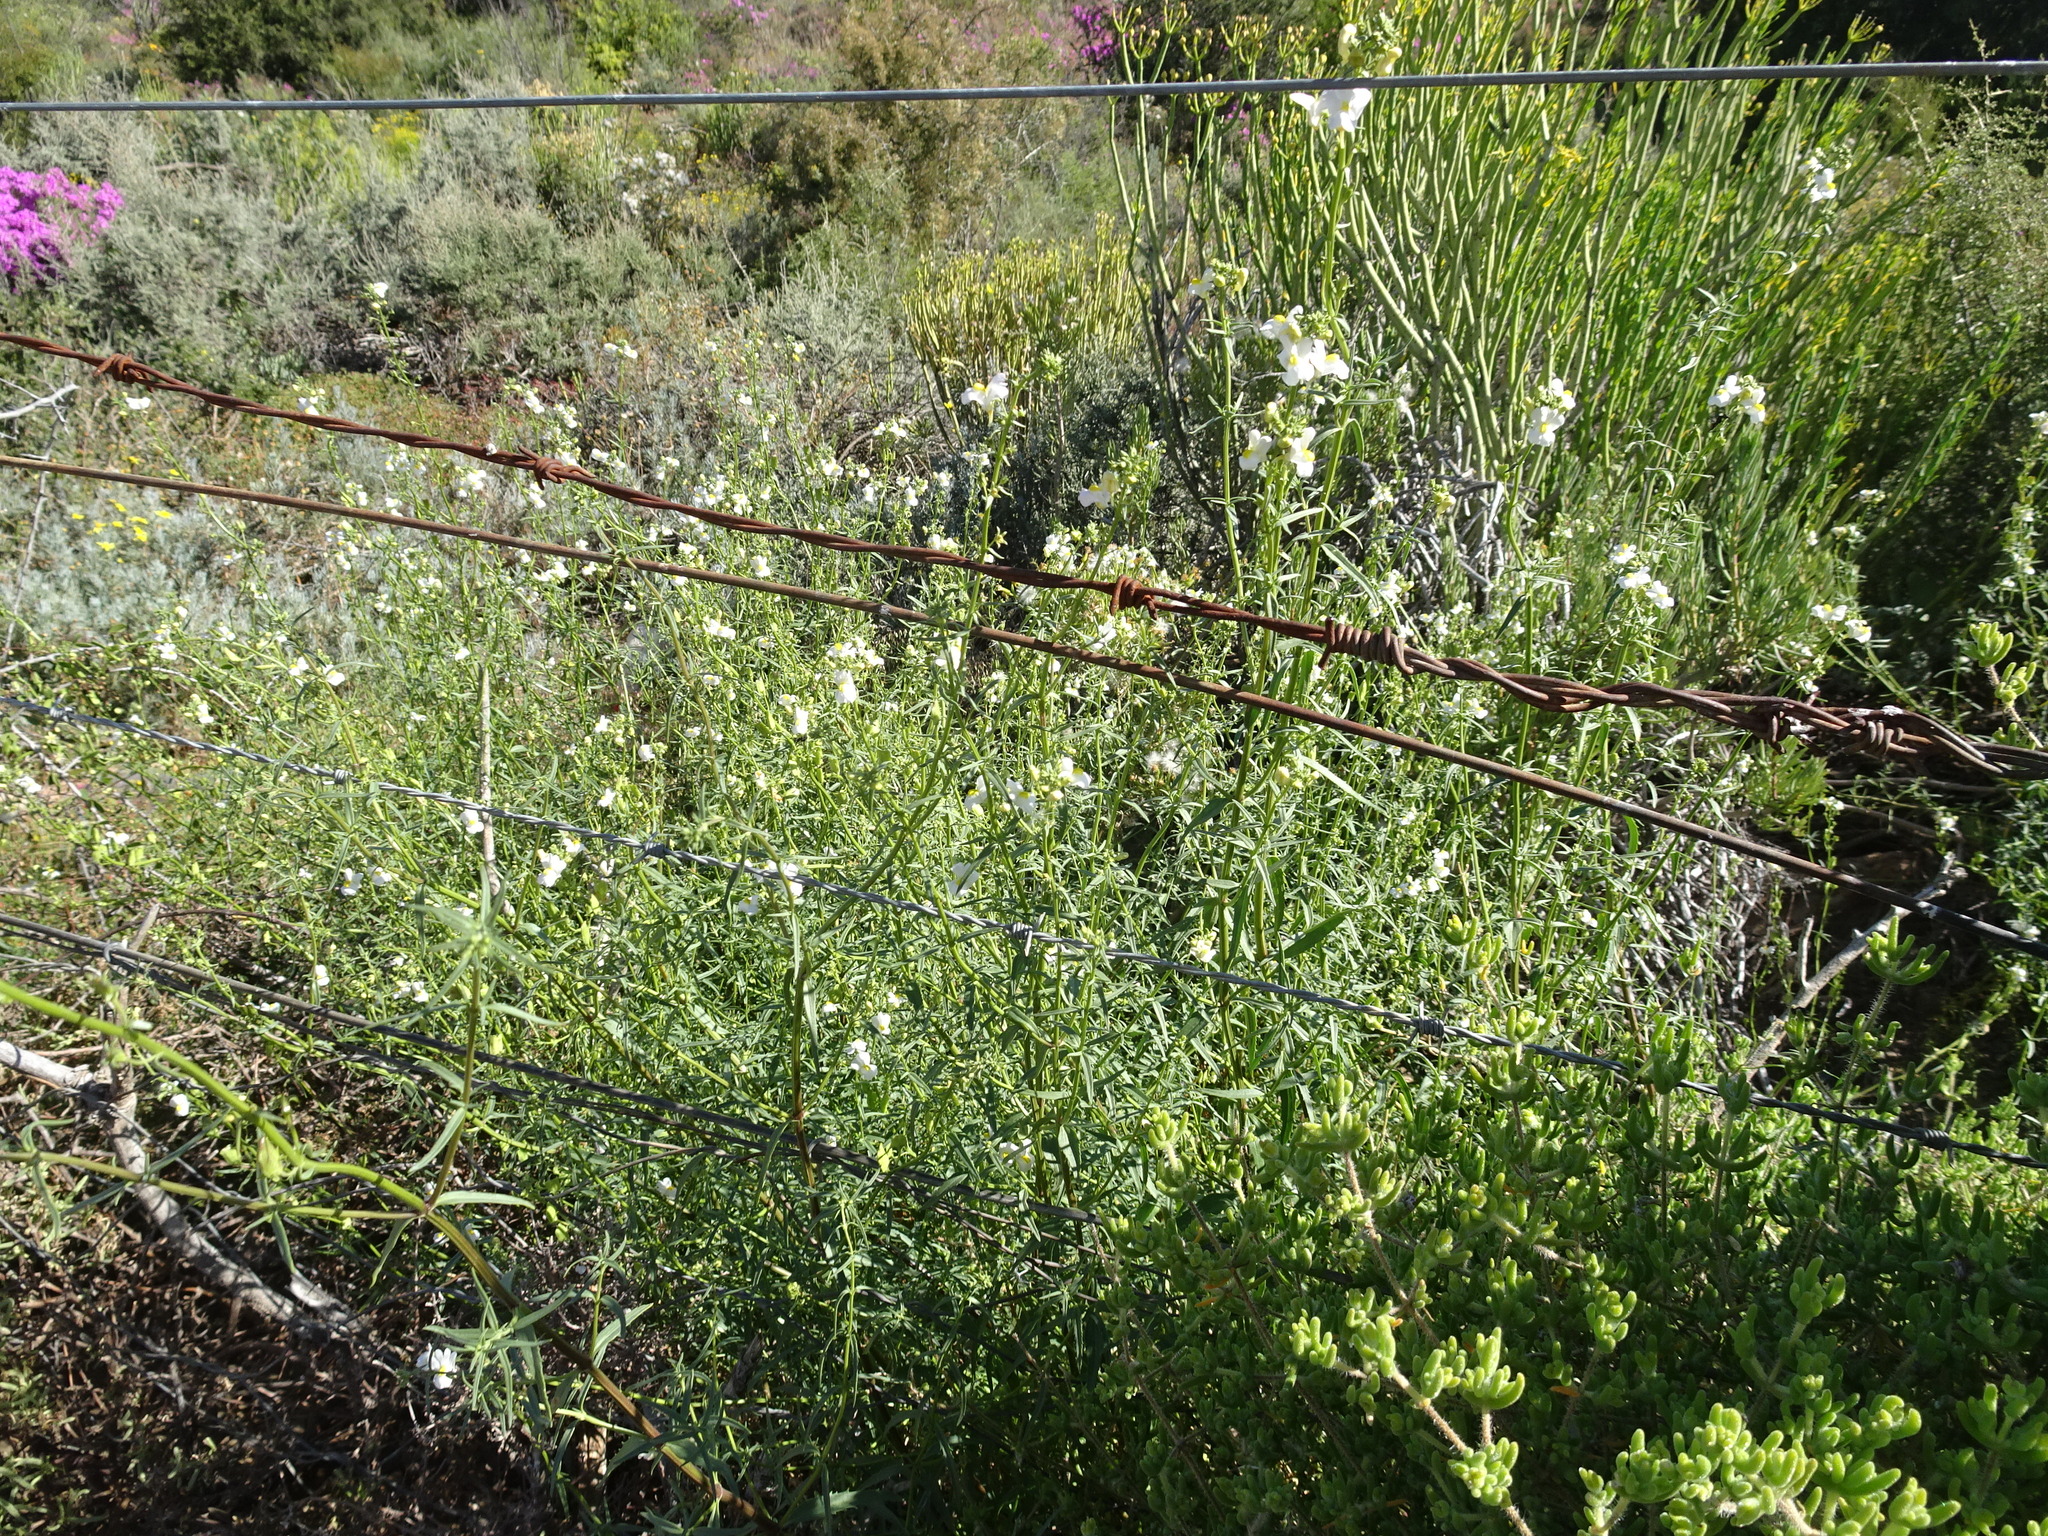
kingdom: Plantae
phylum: Tracheophyta
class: Magnoliopsida
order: Lamiales
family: Scrophulariaceae
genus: Nemesia
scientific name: Nemesia fruticans
